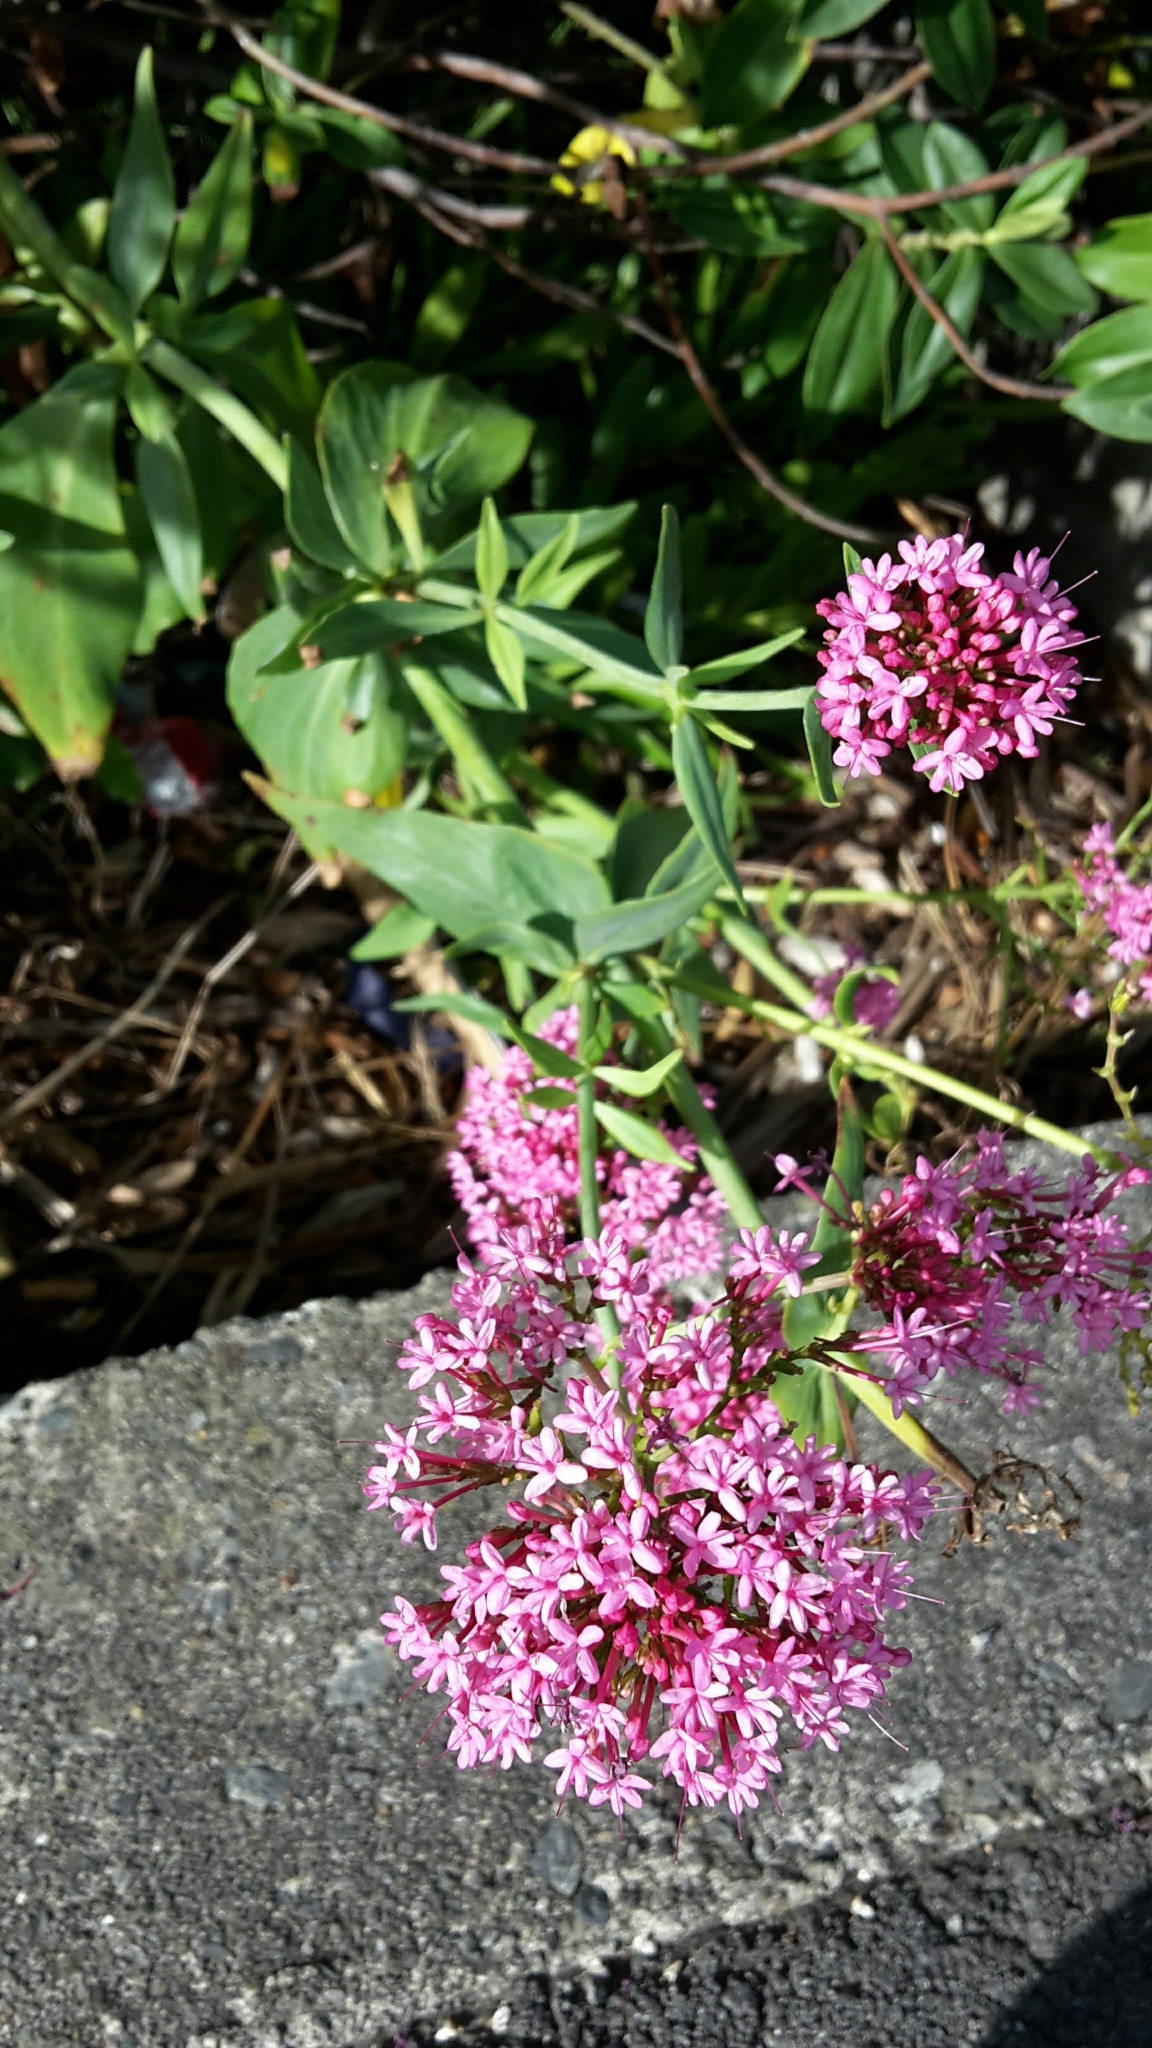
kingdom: Plantae
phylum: Tracheophyta
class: Magnoliopsida
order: Dipsacales
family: Caprifoliaceae
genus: Centranthus
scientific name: Centranthus ruber
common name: Red valerian
